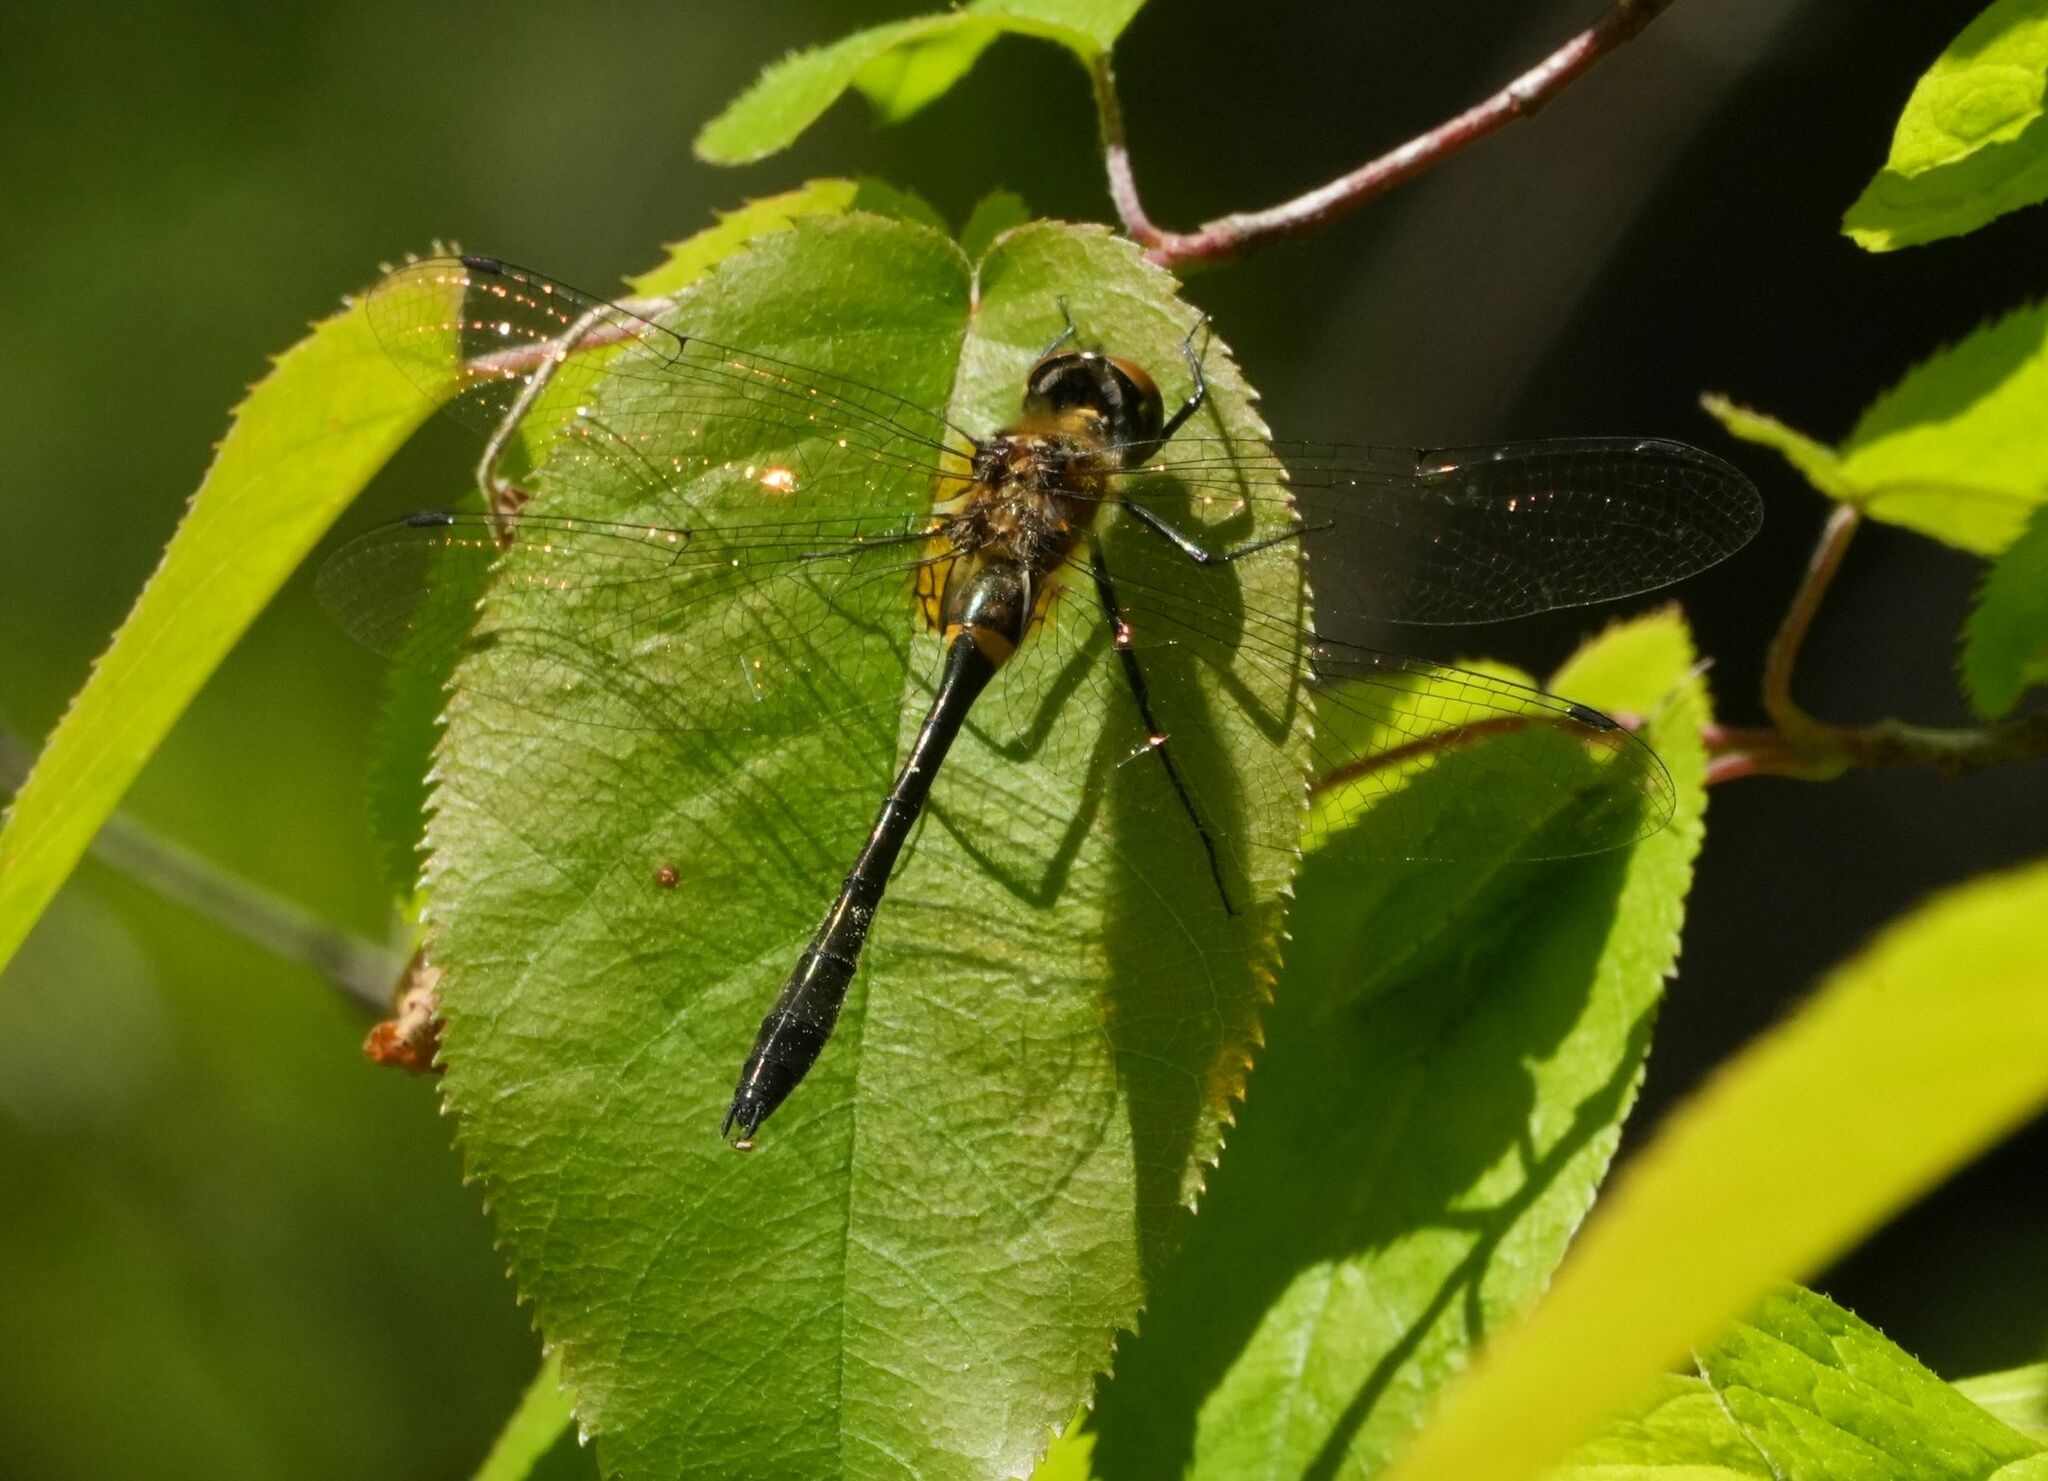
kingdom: Animalia
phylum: Arthropoda
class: Insecta
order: Odonata
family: Corduliidae
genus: Dorocordulia
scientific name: Dorocordulia libera
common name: Racket-tailed emerald
